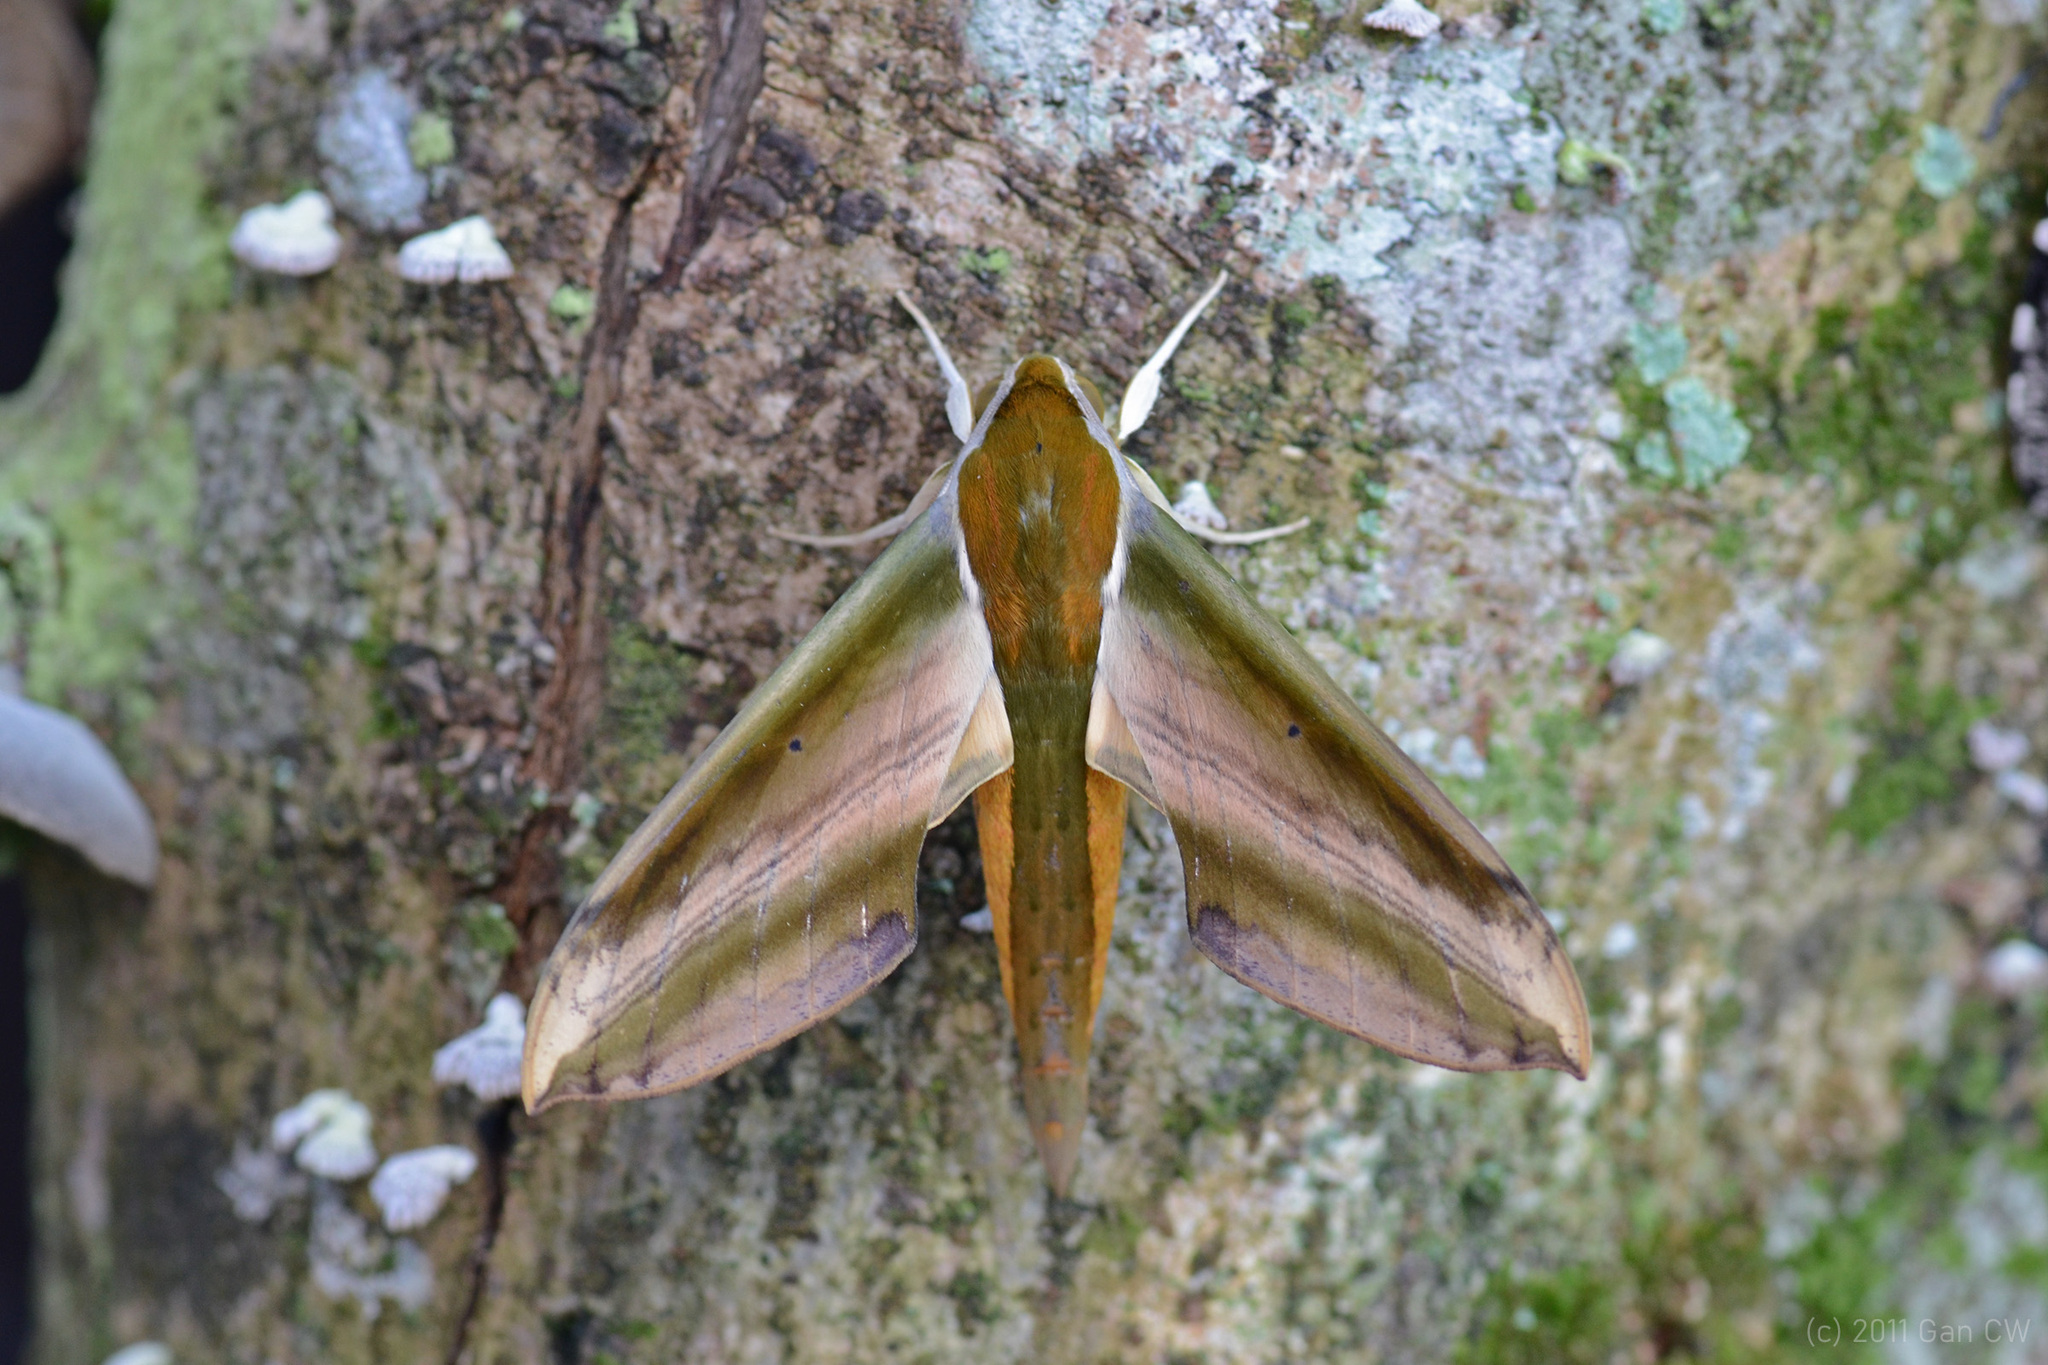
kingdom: Animalia
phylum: Arthropoda
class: Insecta
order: Lepidoptera
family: Sphingidae
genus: Theretra
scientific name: Theretra nessus
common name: Yam hawk moth
